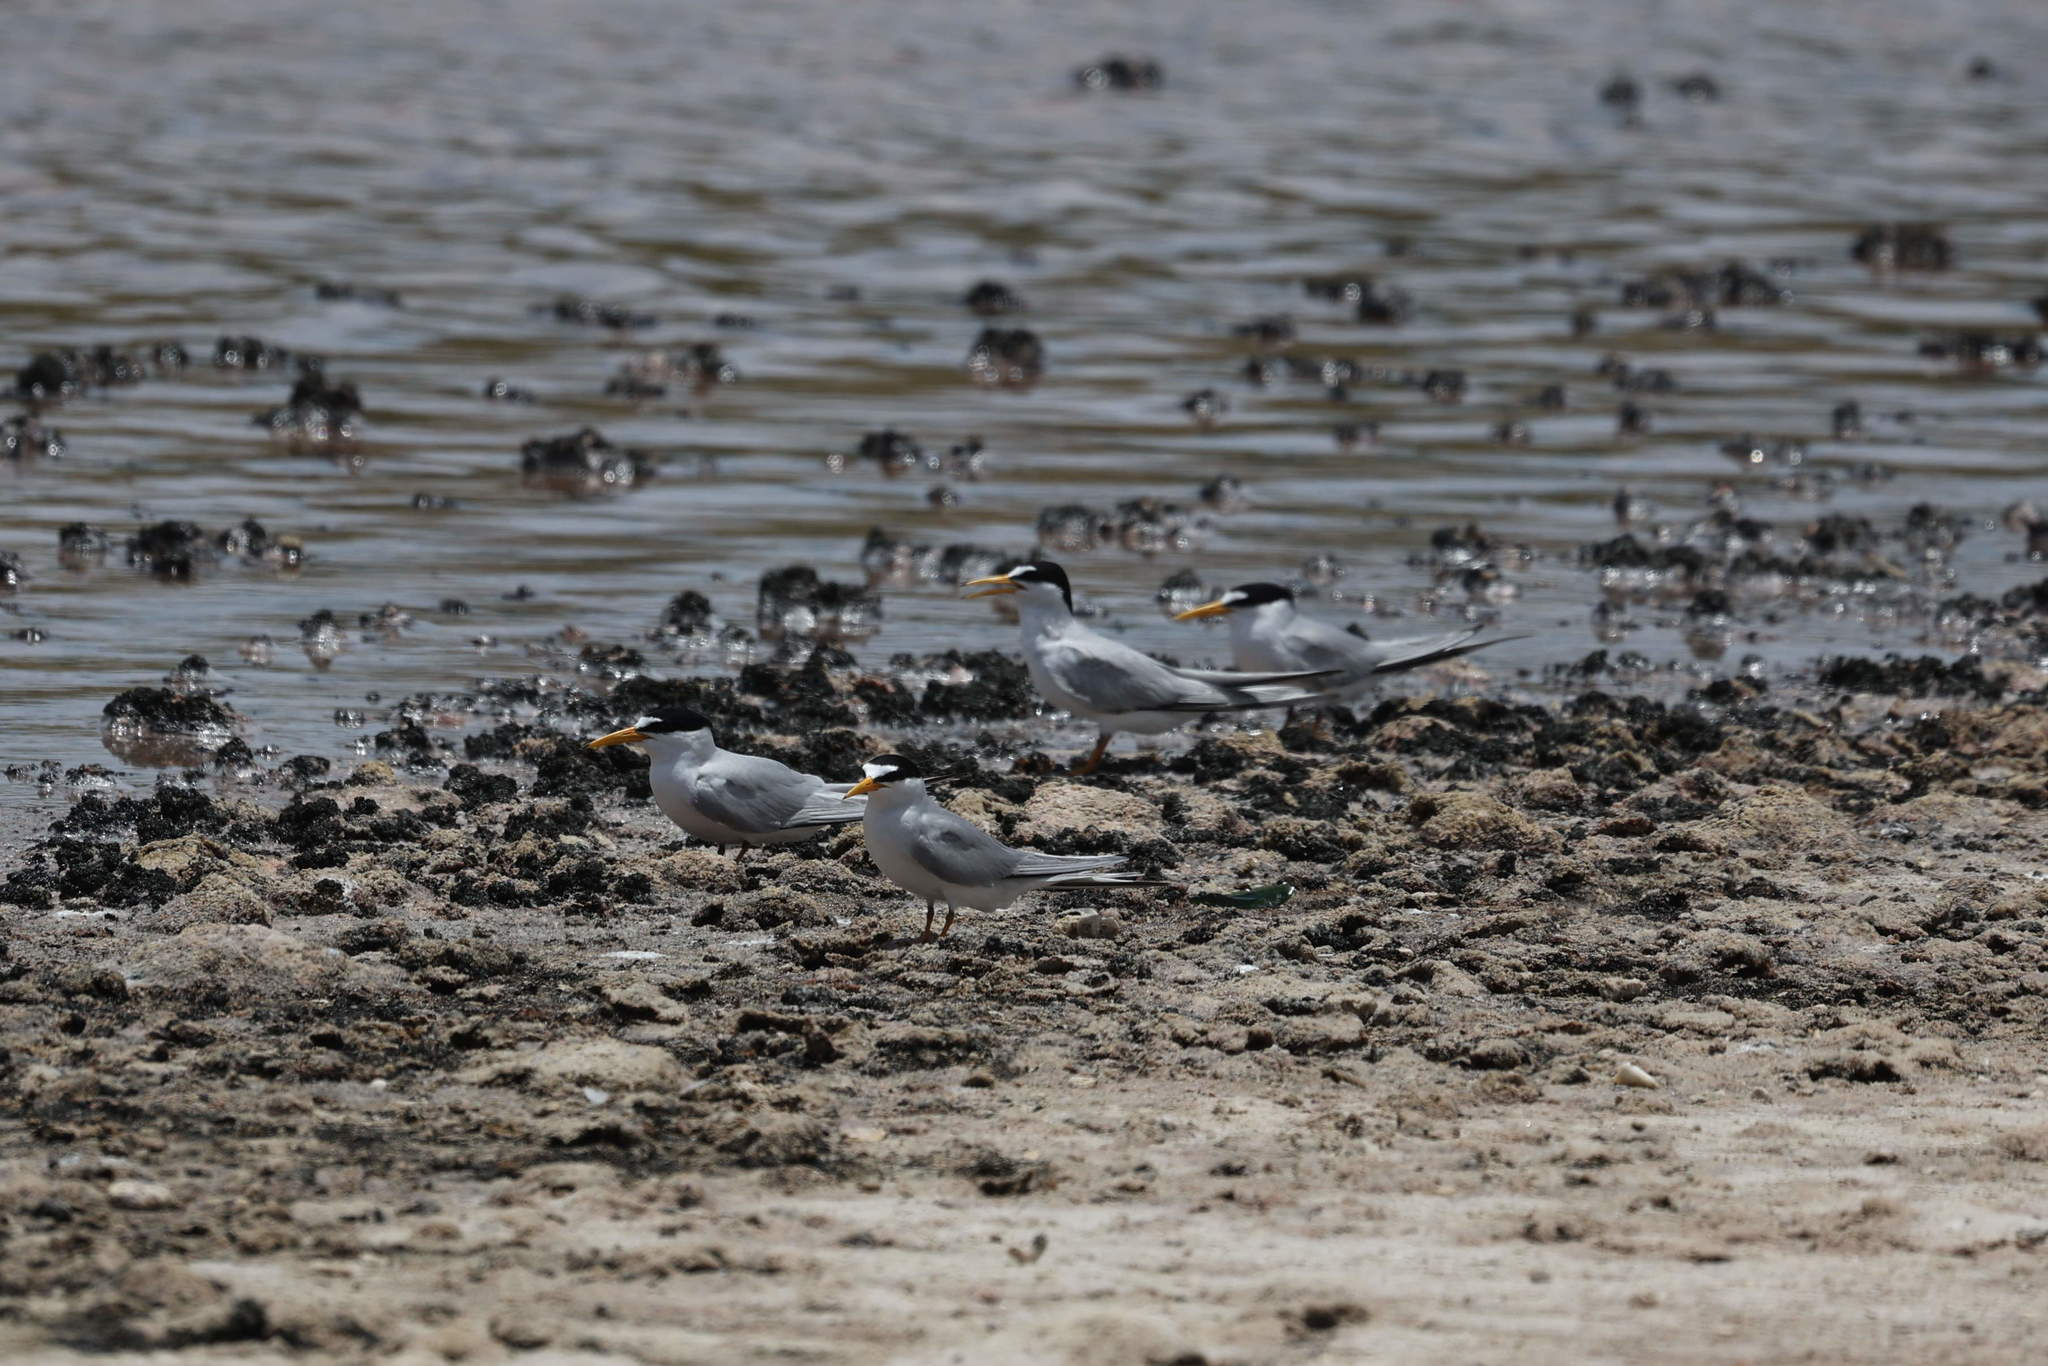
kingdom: Animalia
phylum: Chordata
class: Aves
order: Charadriiformes
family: Laridae
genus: Sternula
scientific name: Sternula antillarum
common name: Least tern
